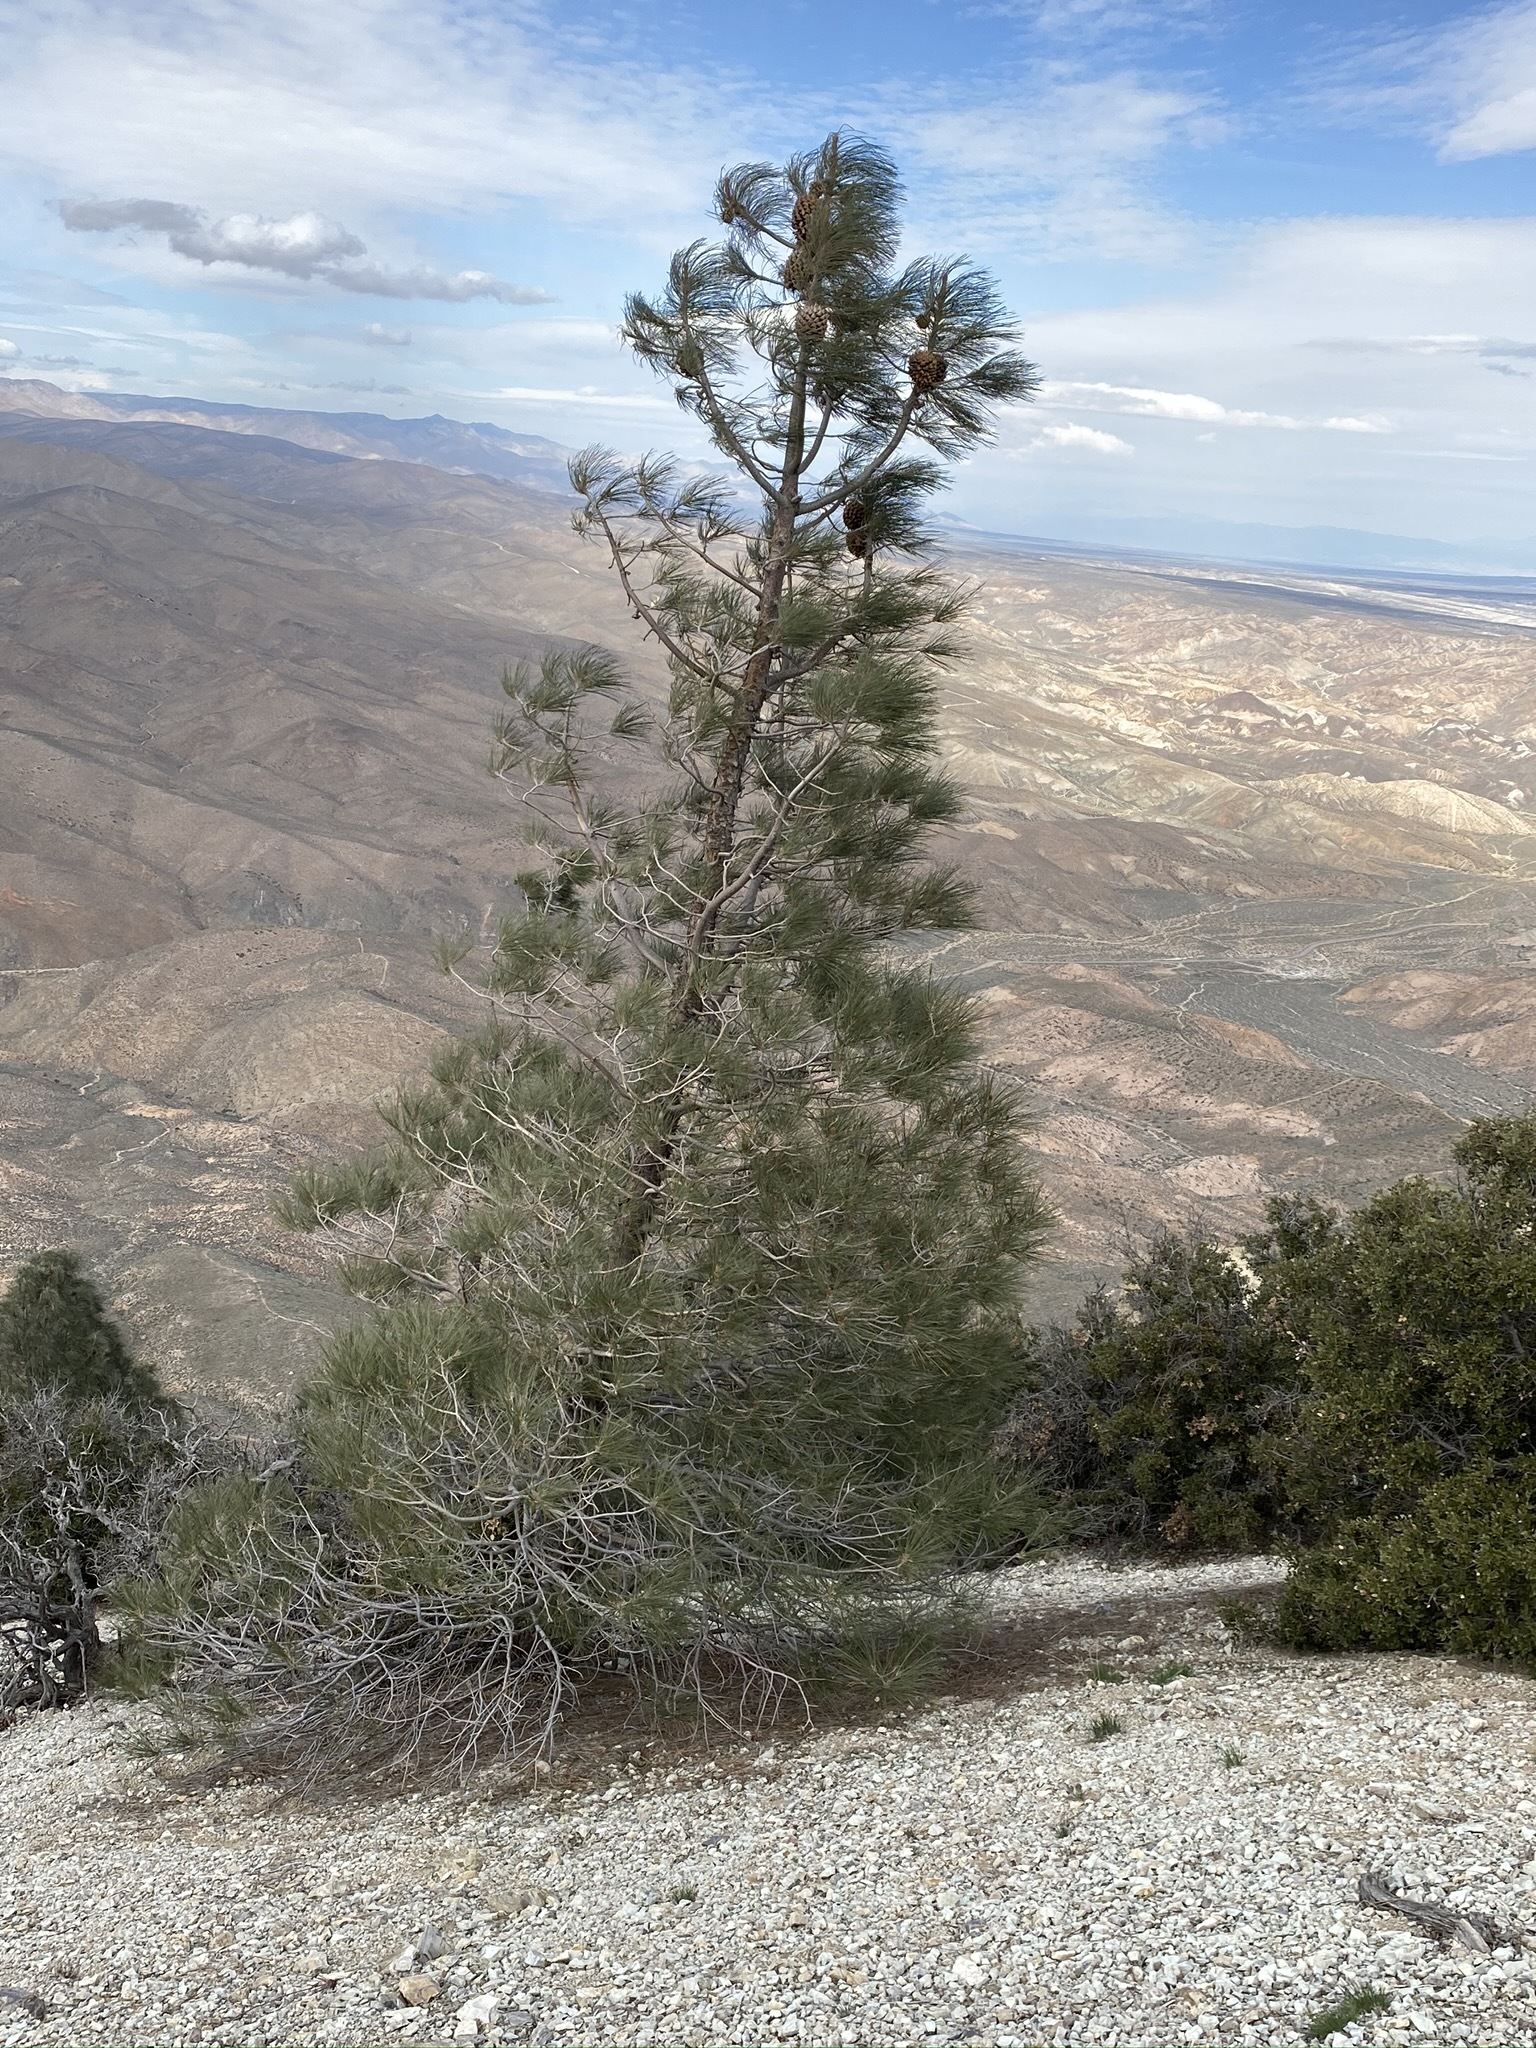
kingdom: Plantae
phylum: Tracheophyta
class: Pinopsida
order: Pinales
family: Pinaceae
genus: Pinus
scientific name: Pinus sabiniana
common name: Bull pine
